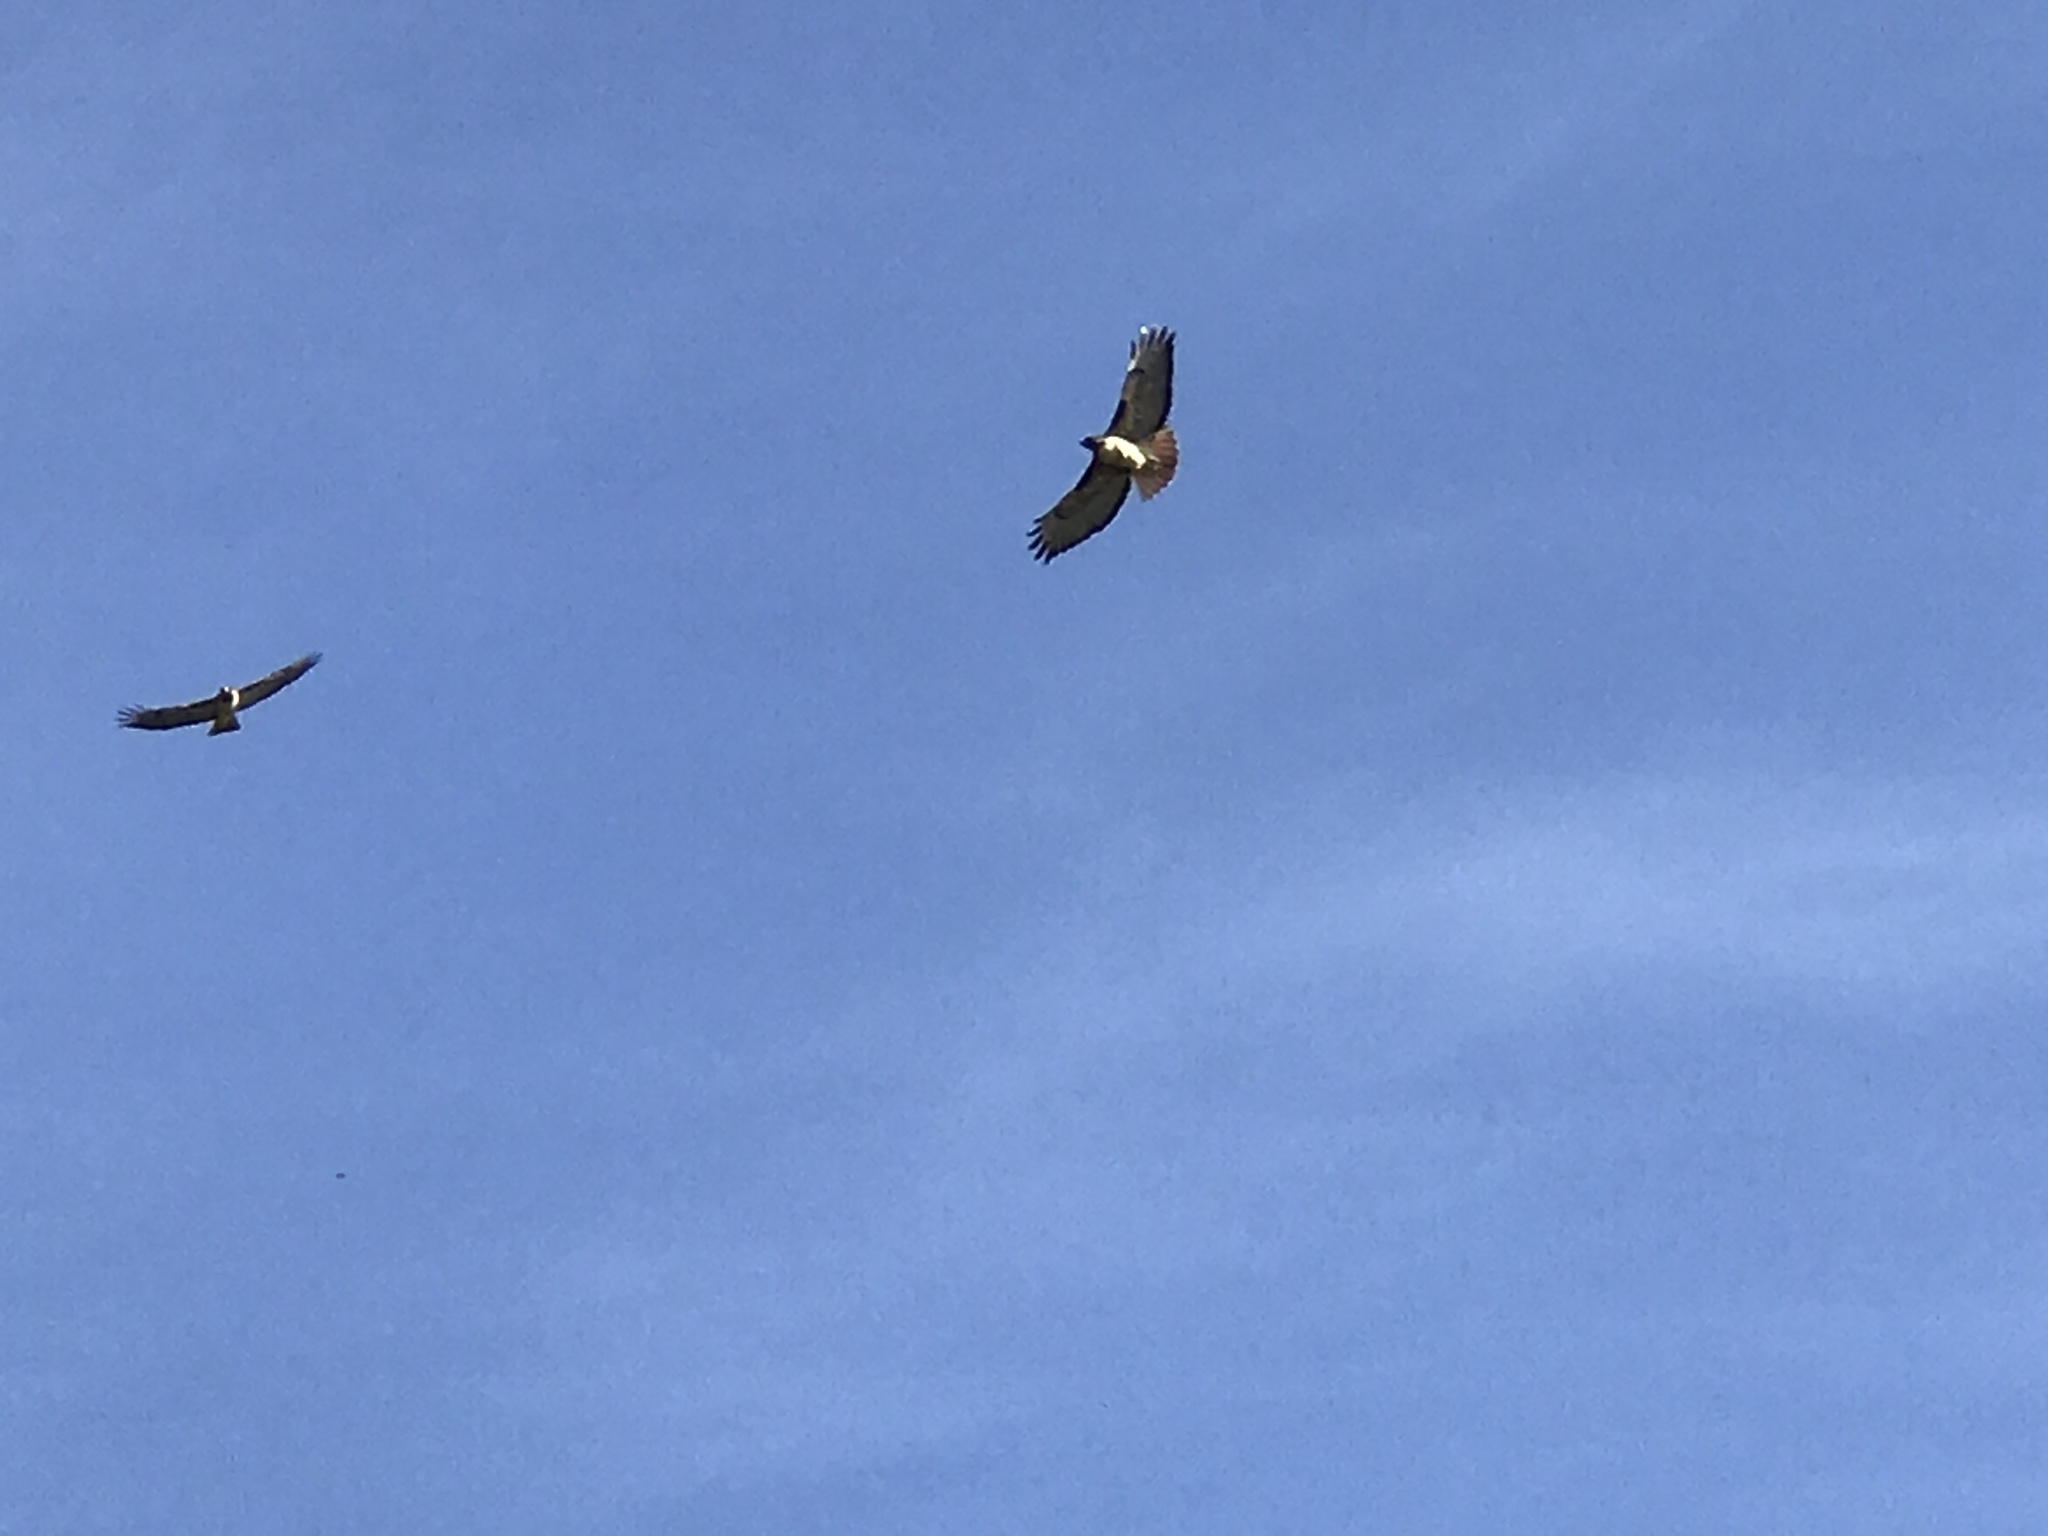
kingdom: Animalia
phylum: Chordata
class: Aves
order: Accipitriformes
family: Accipitridae
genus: Buteo
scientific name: Buteo jamaicensis
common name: Red-tailed hawk
